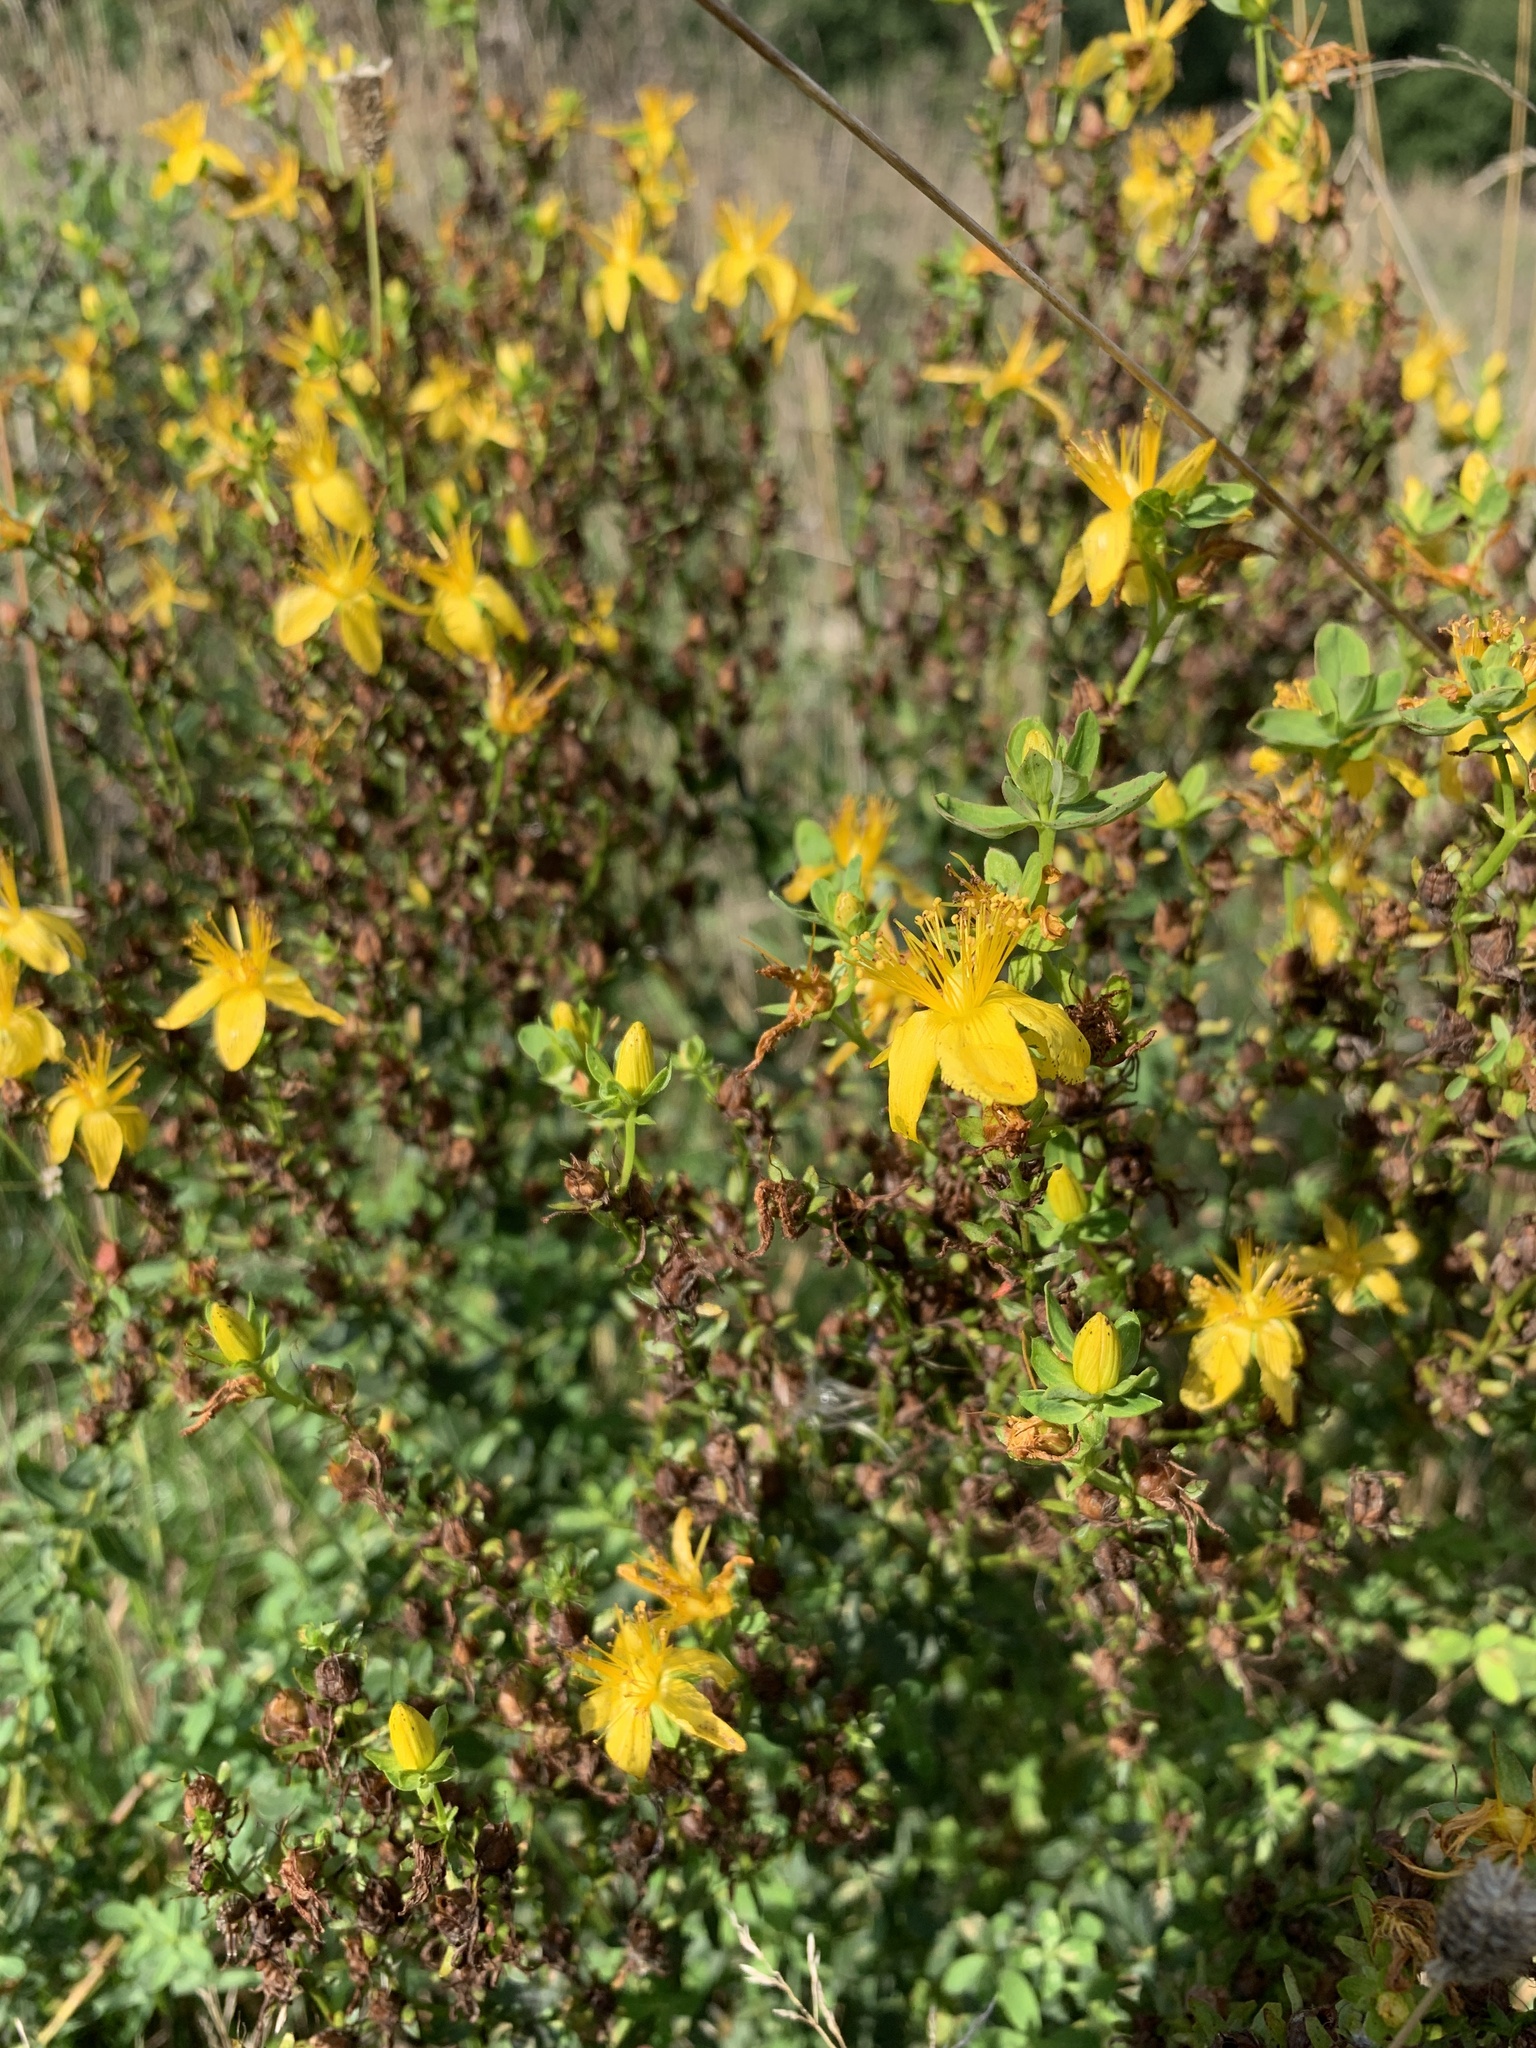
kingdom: Plantae
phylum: Tracheophyta
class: Magnoliopsida
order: Malpighiales
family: Hypericaceae
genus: Hypericum
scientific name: Hypericum perforatum
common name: Common st. johnswort
